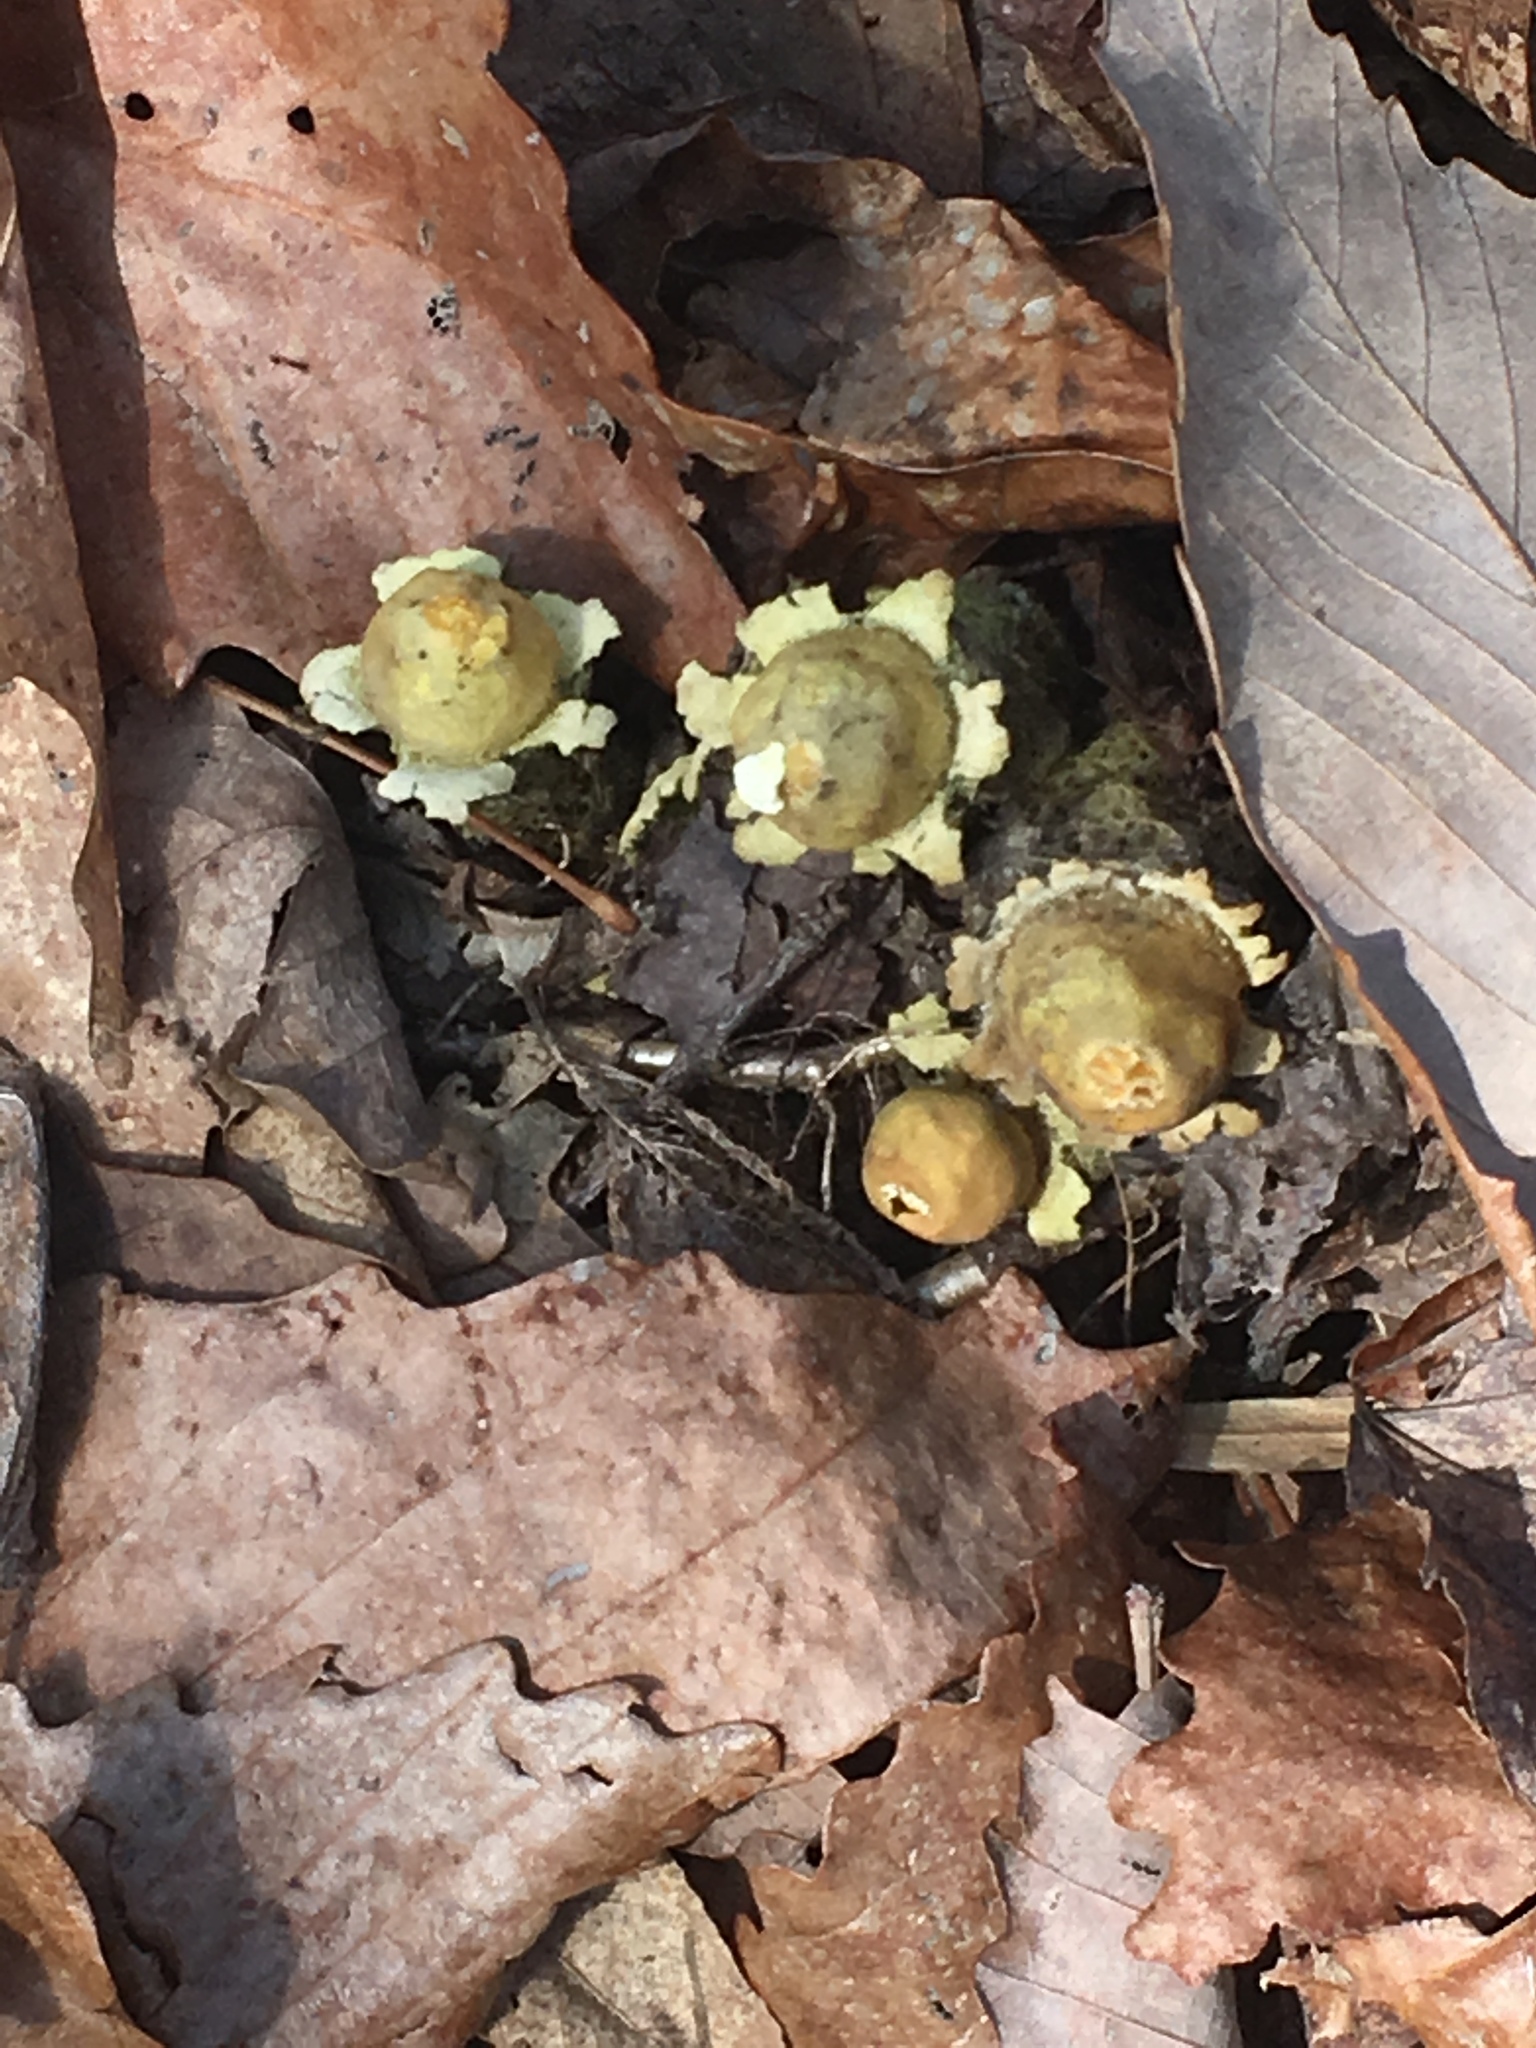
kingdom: Fungi
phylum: Basidiomycota
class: Agaricomycetes
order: Boletales
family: Calostomataceae
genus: Calostoma
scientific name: Calostoma lutescens
